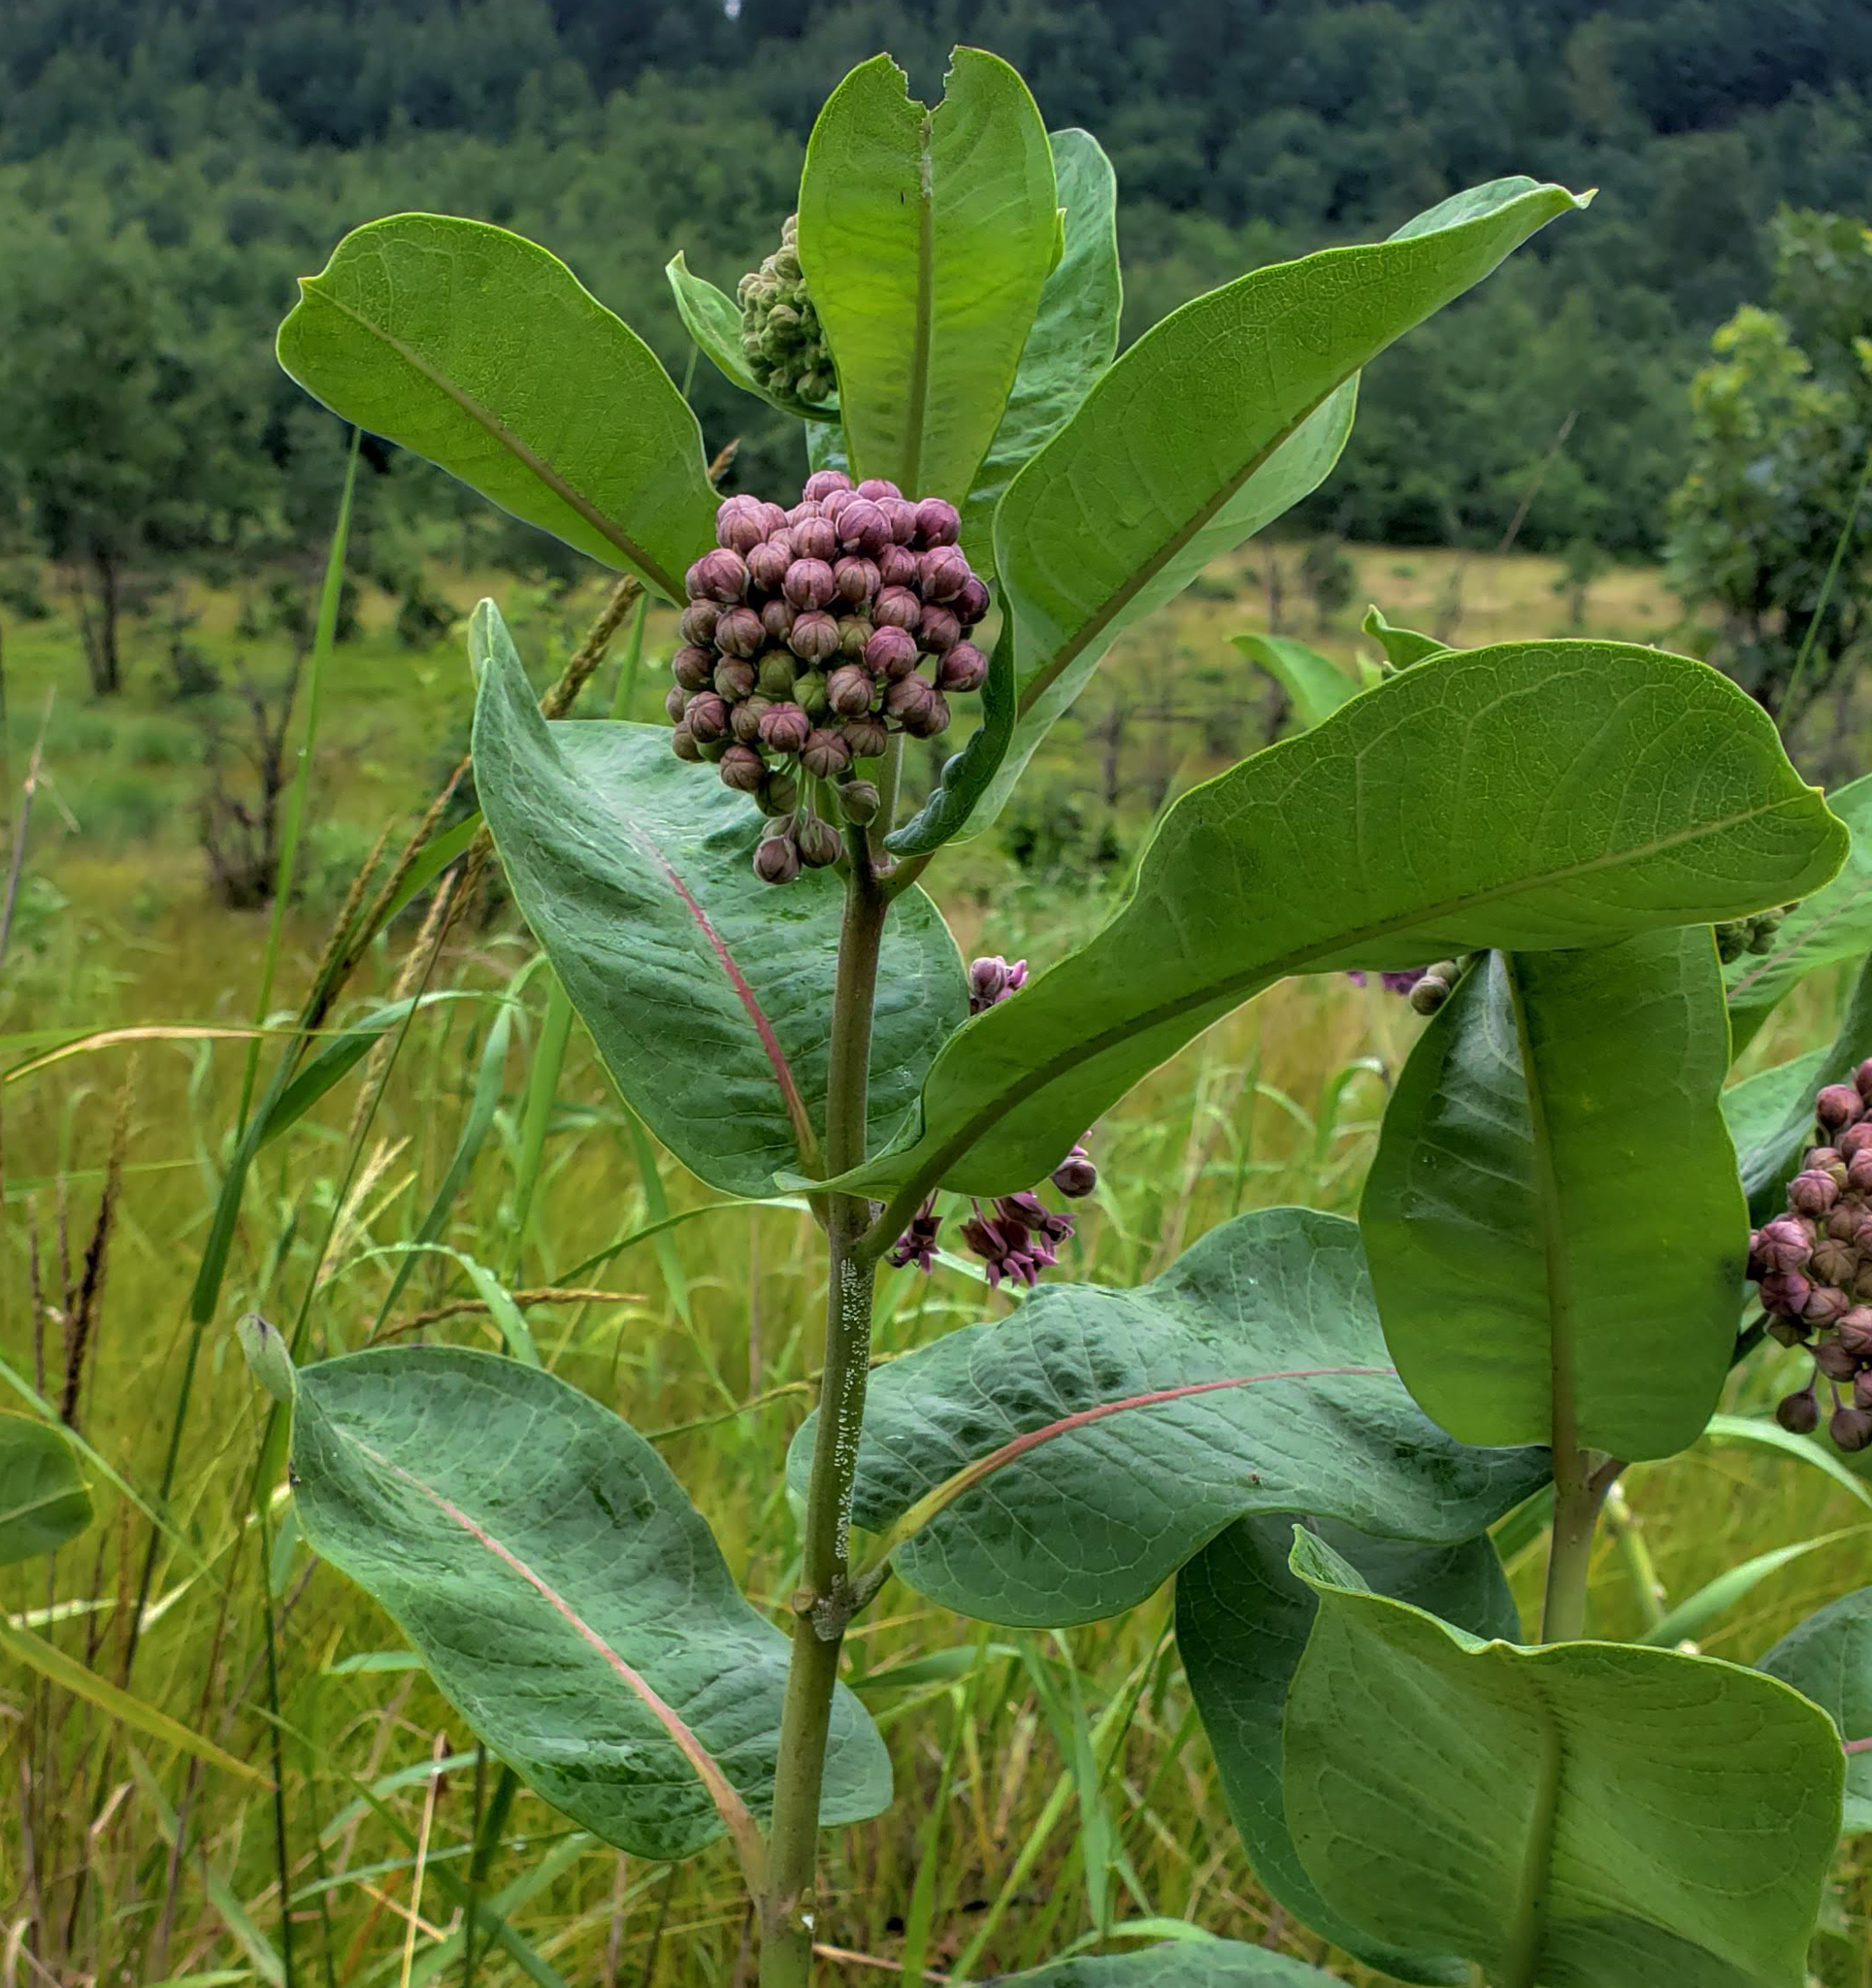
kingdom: Plantae
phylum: Tracheophyta
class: Magnoliopsida
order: Gentianales
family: Apocynaceae
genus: Asclepias
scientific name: Asclepias syriaca
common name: Common milkweed
